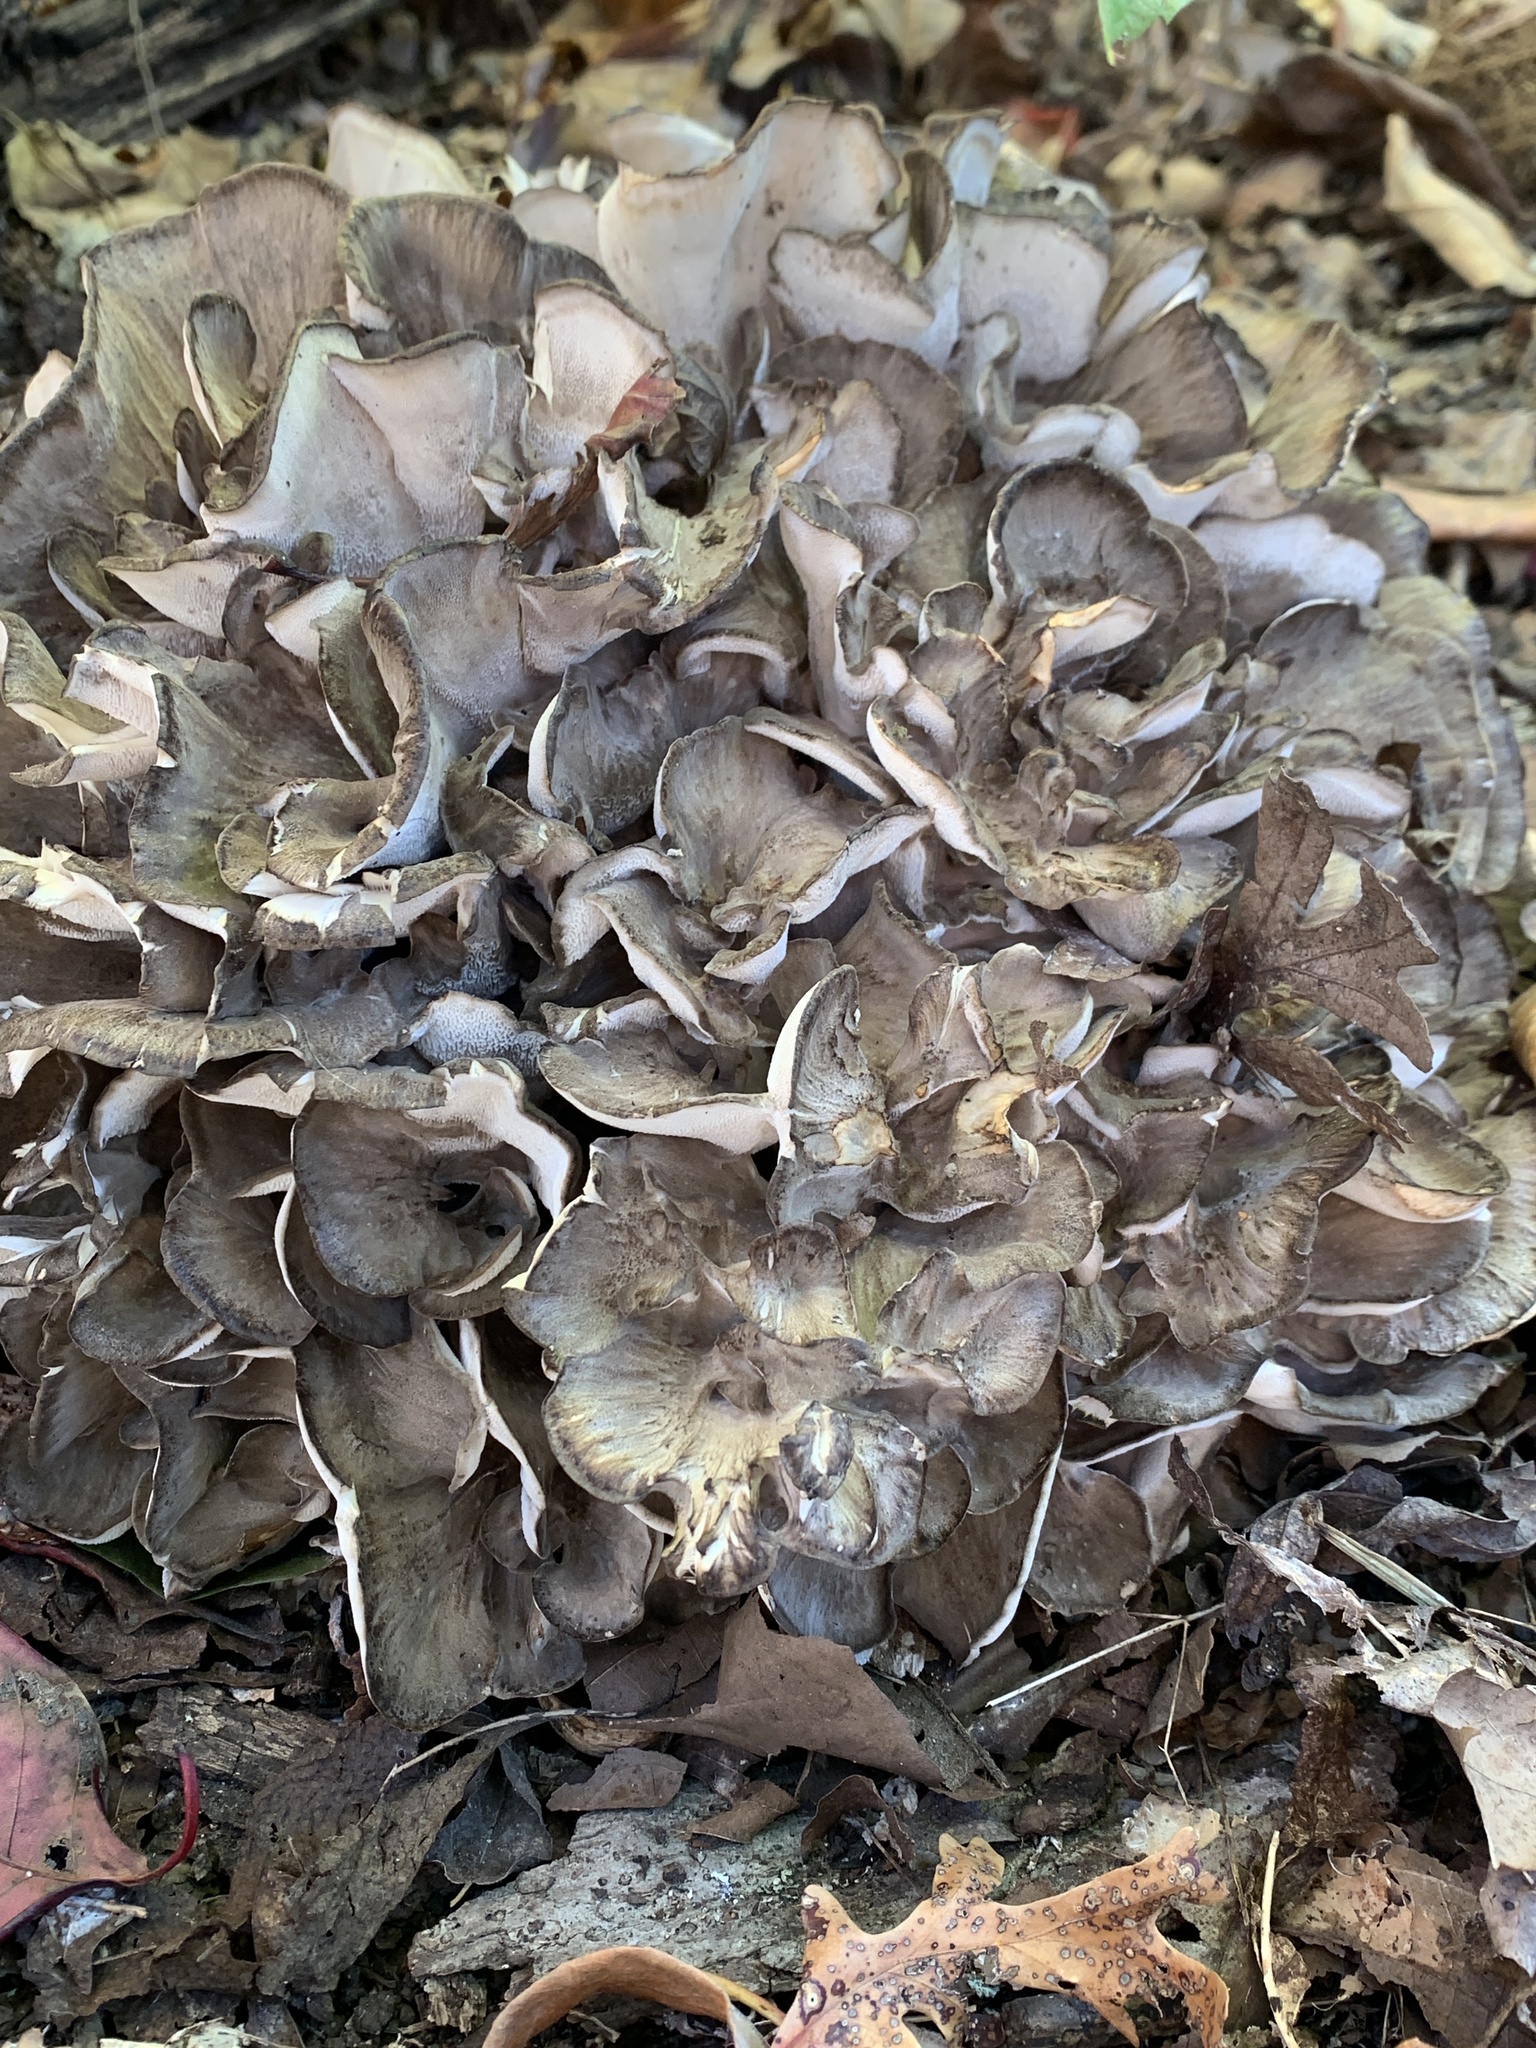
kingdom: Fungi
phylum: Basidiomycota
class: Agaricomycetes
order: Polyporales
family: Grifolaceae
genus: Grifola
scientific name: Grifola frondosa
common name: Hen of the woods
